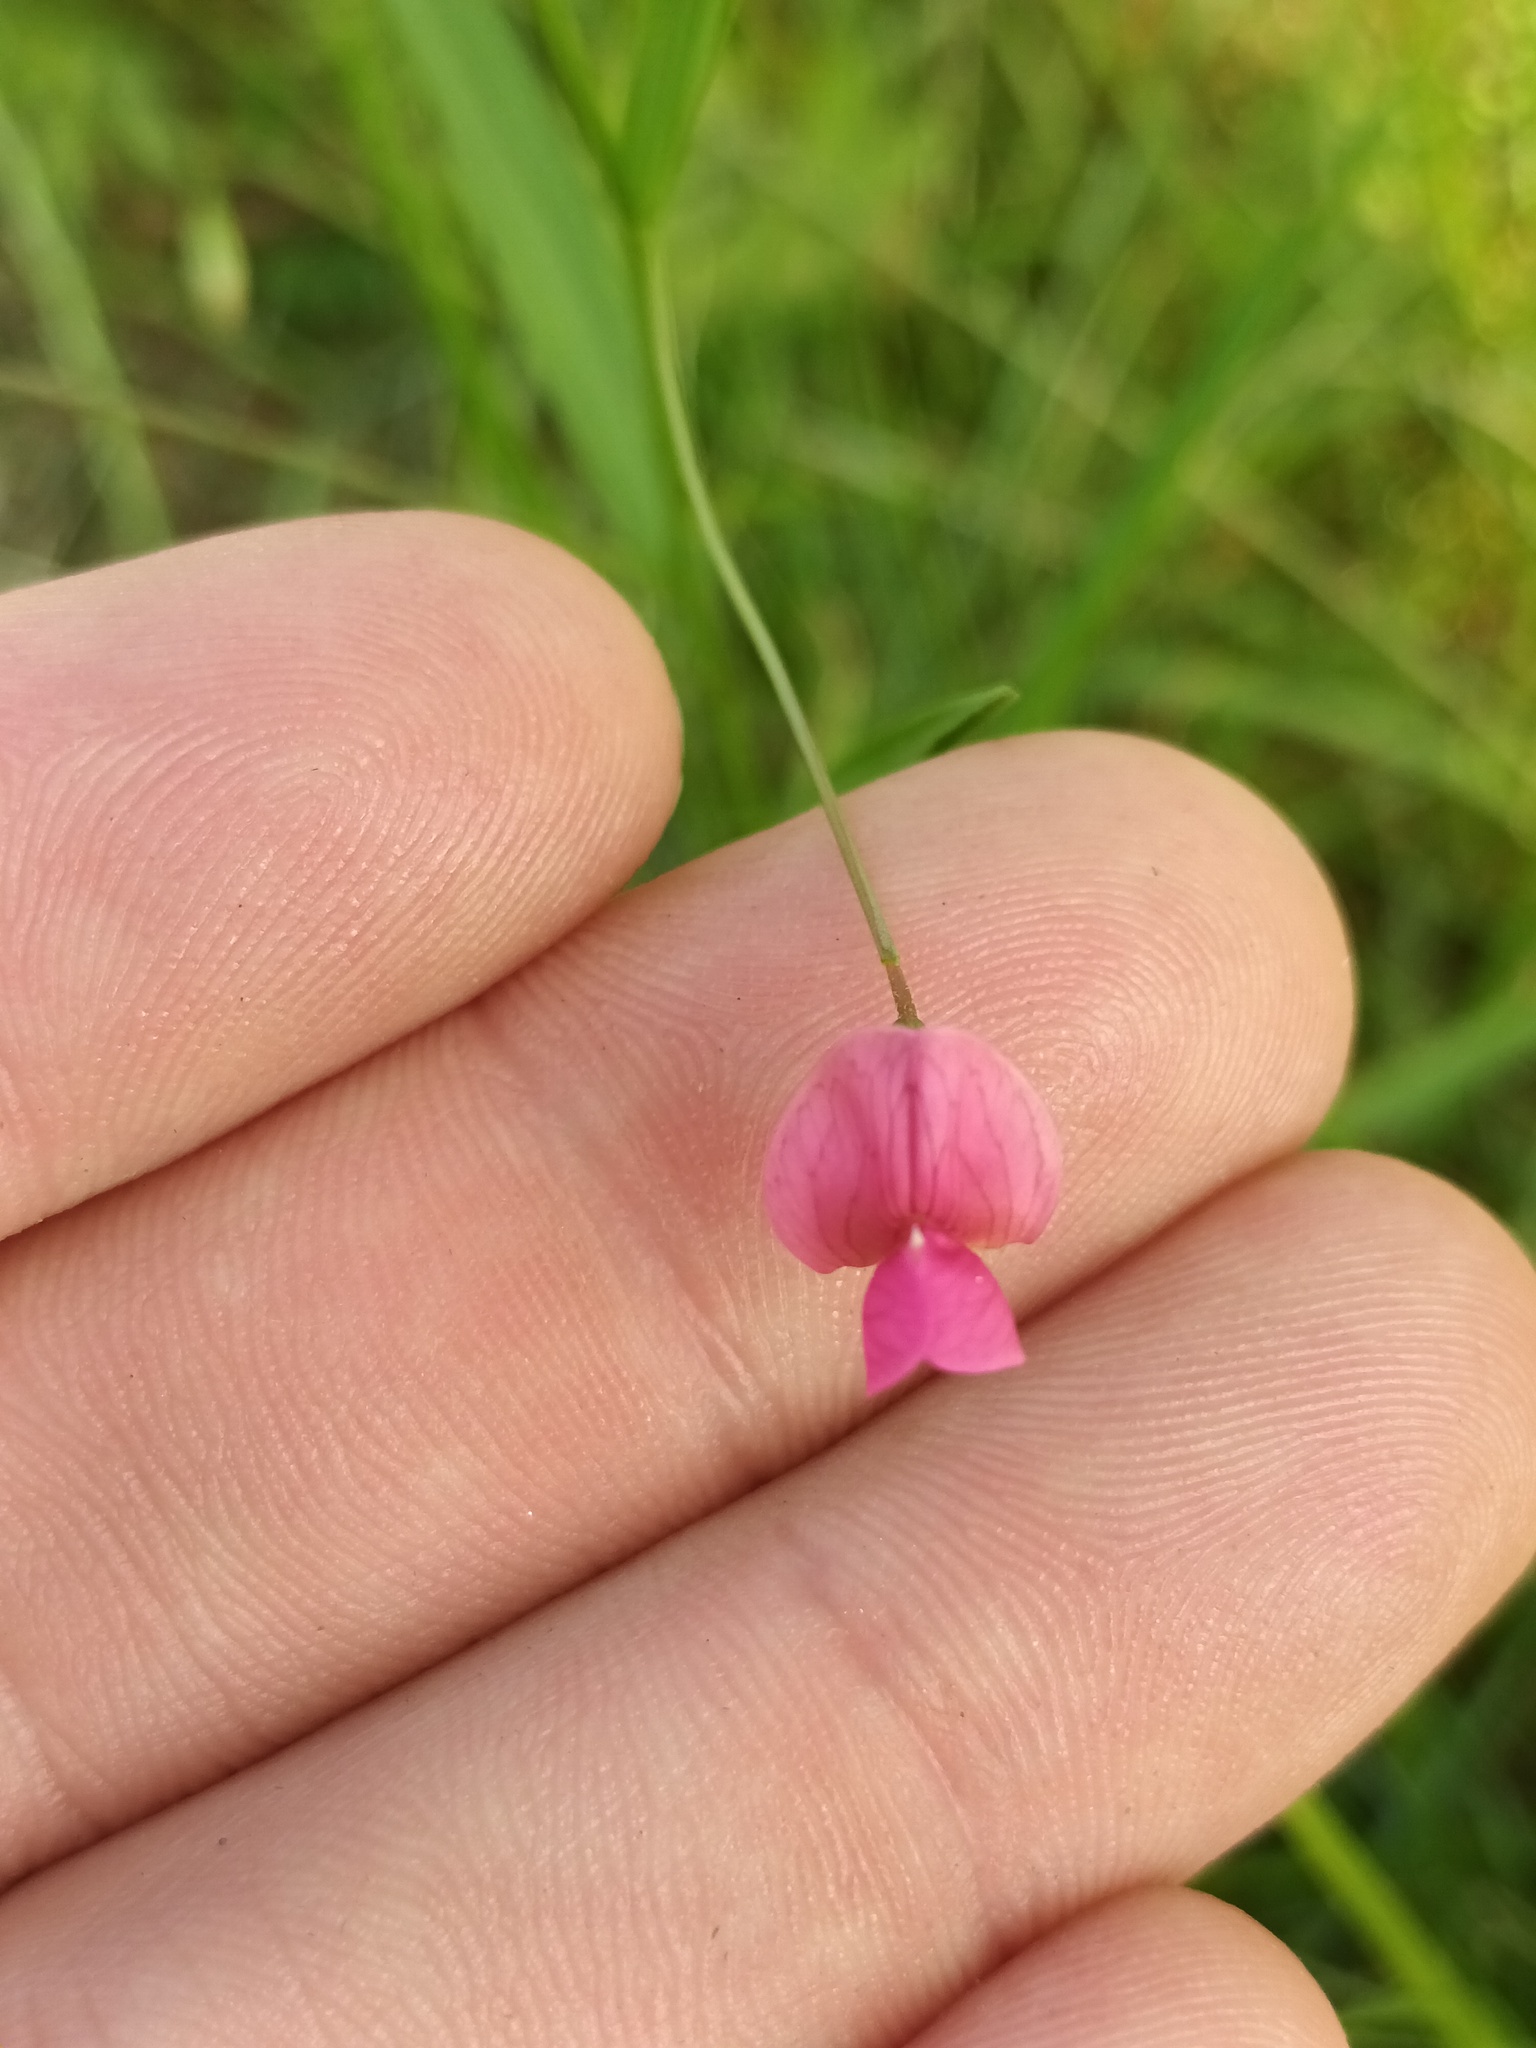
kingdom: Plantae
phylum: Tracheophyta
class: Magnoliopsida
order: Fabales
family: Fabaceae
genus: Lathyrus
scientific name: Lathyrus nissolia
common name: Grass vetchling
